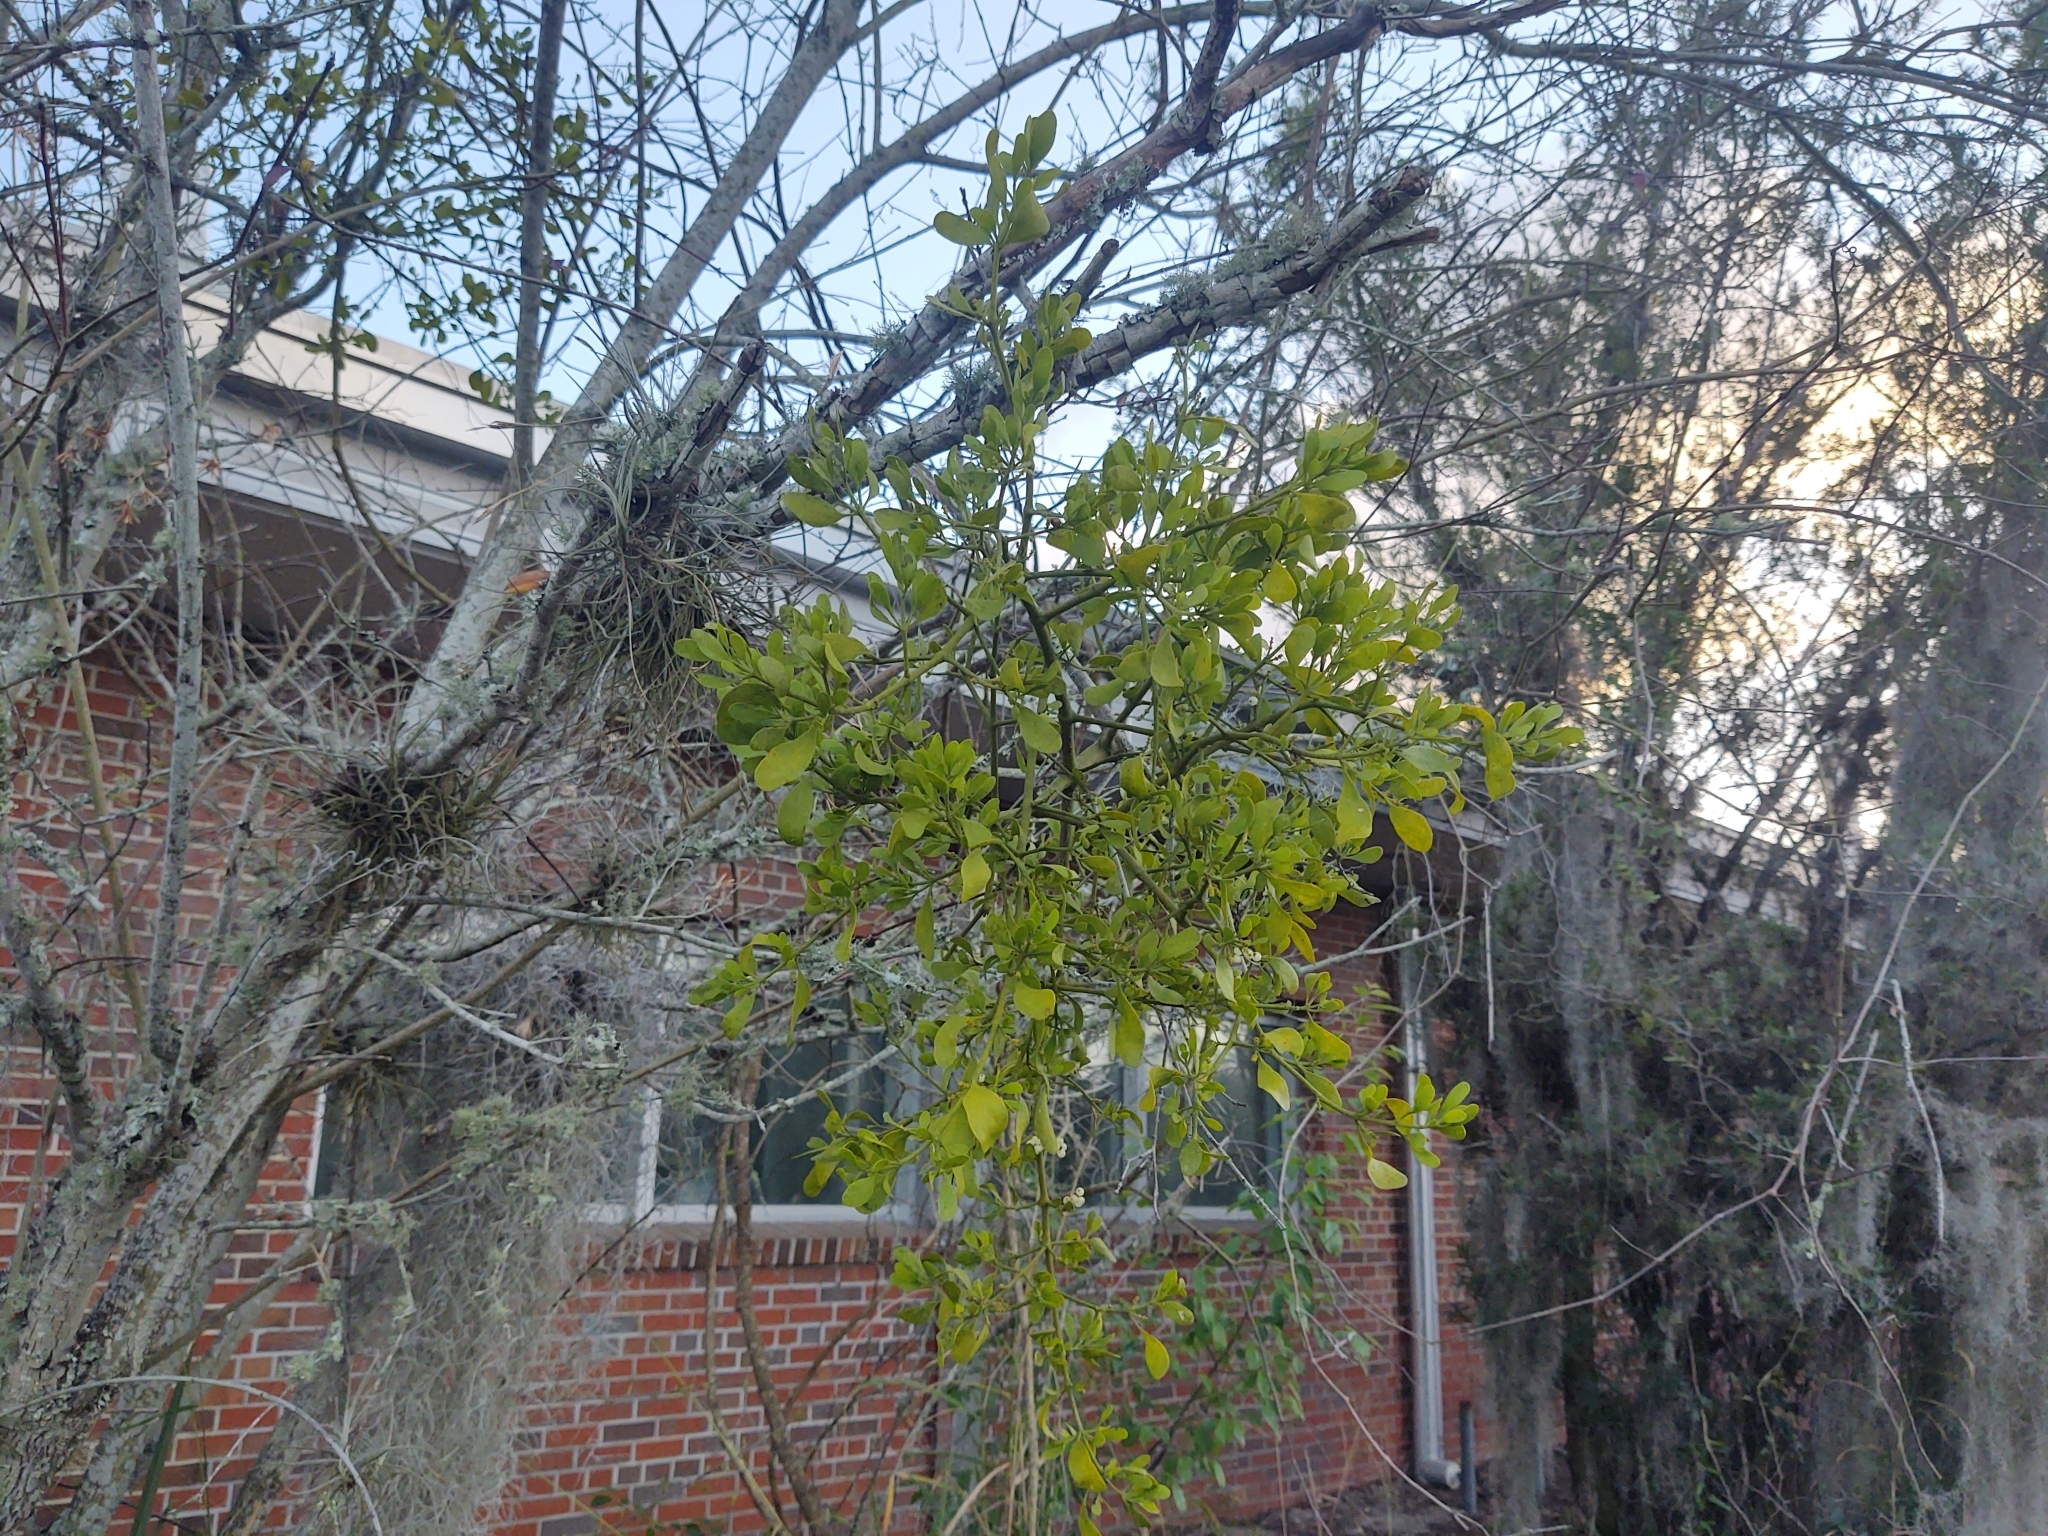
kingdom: Plantae
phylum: Tracheophyta
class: Magnoliopsida
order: Santalales
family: Viscaceae
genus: Phoradendron
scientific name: Phoradendron leucarpum
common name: Pacific mistletoe
